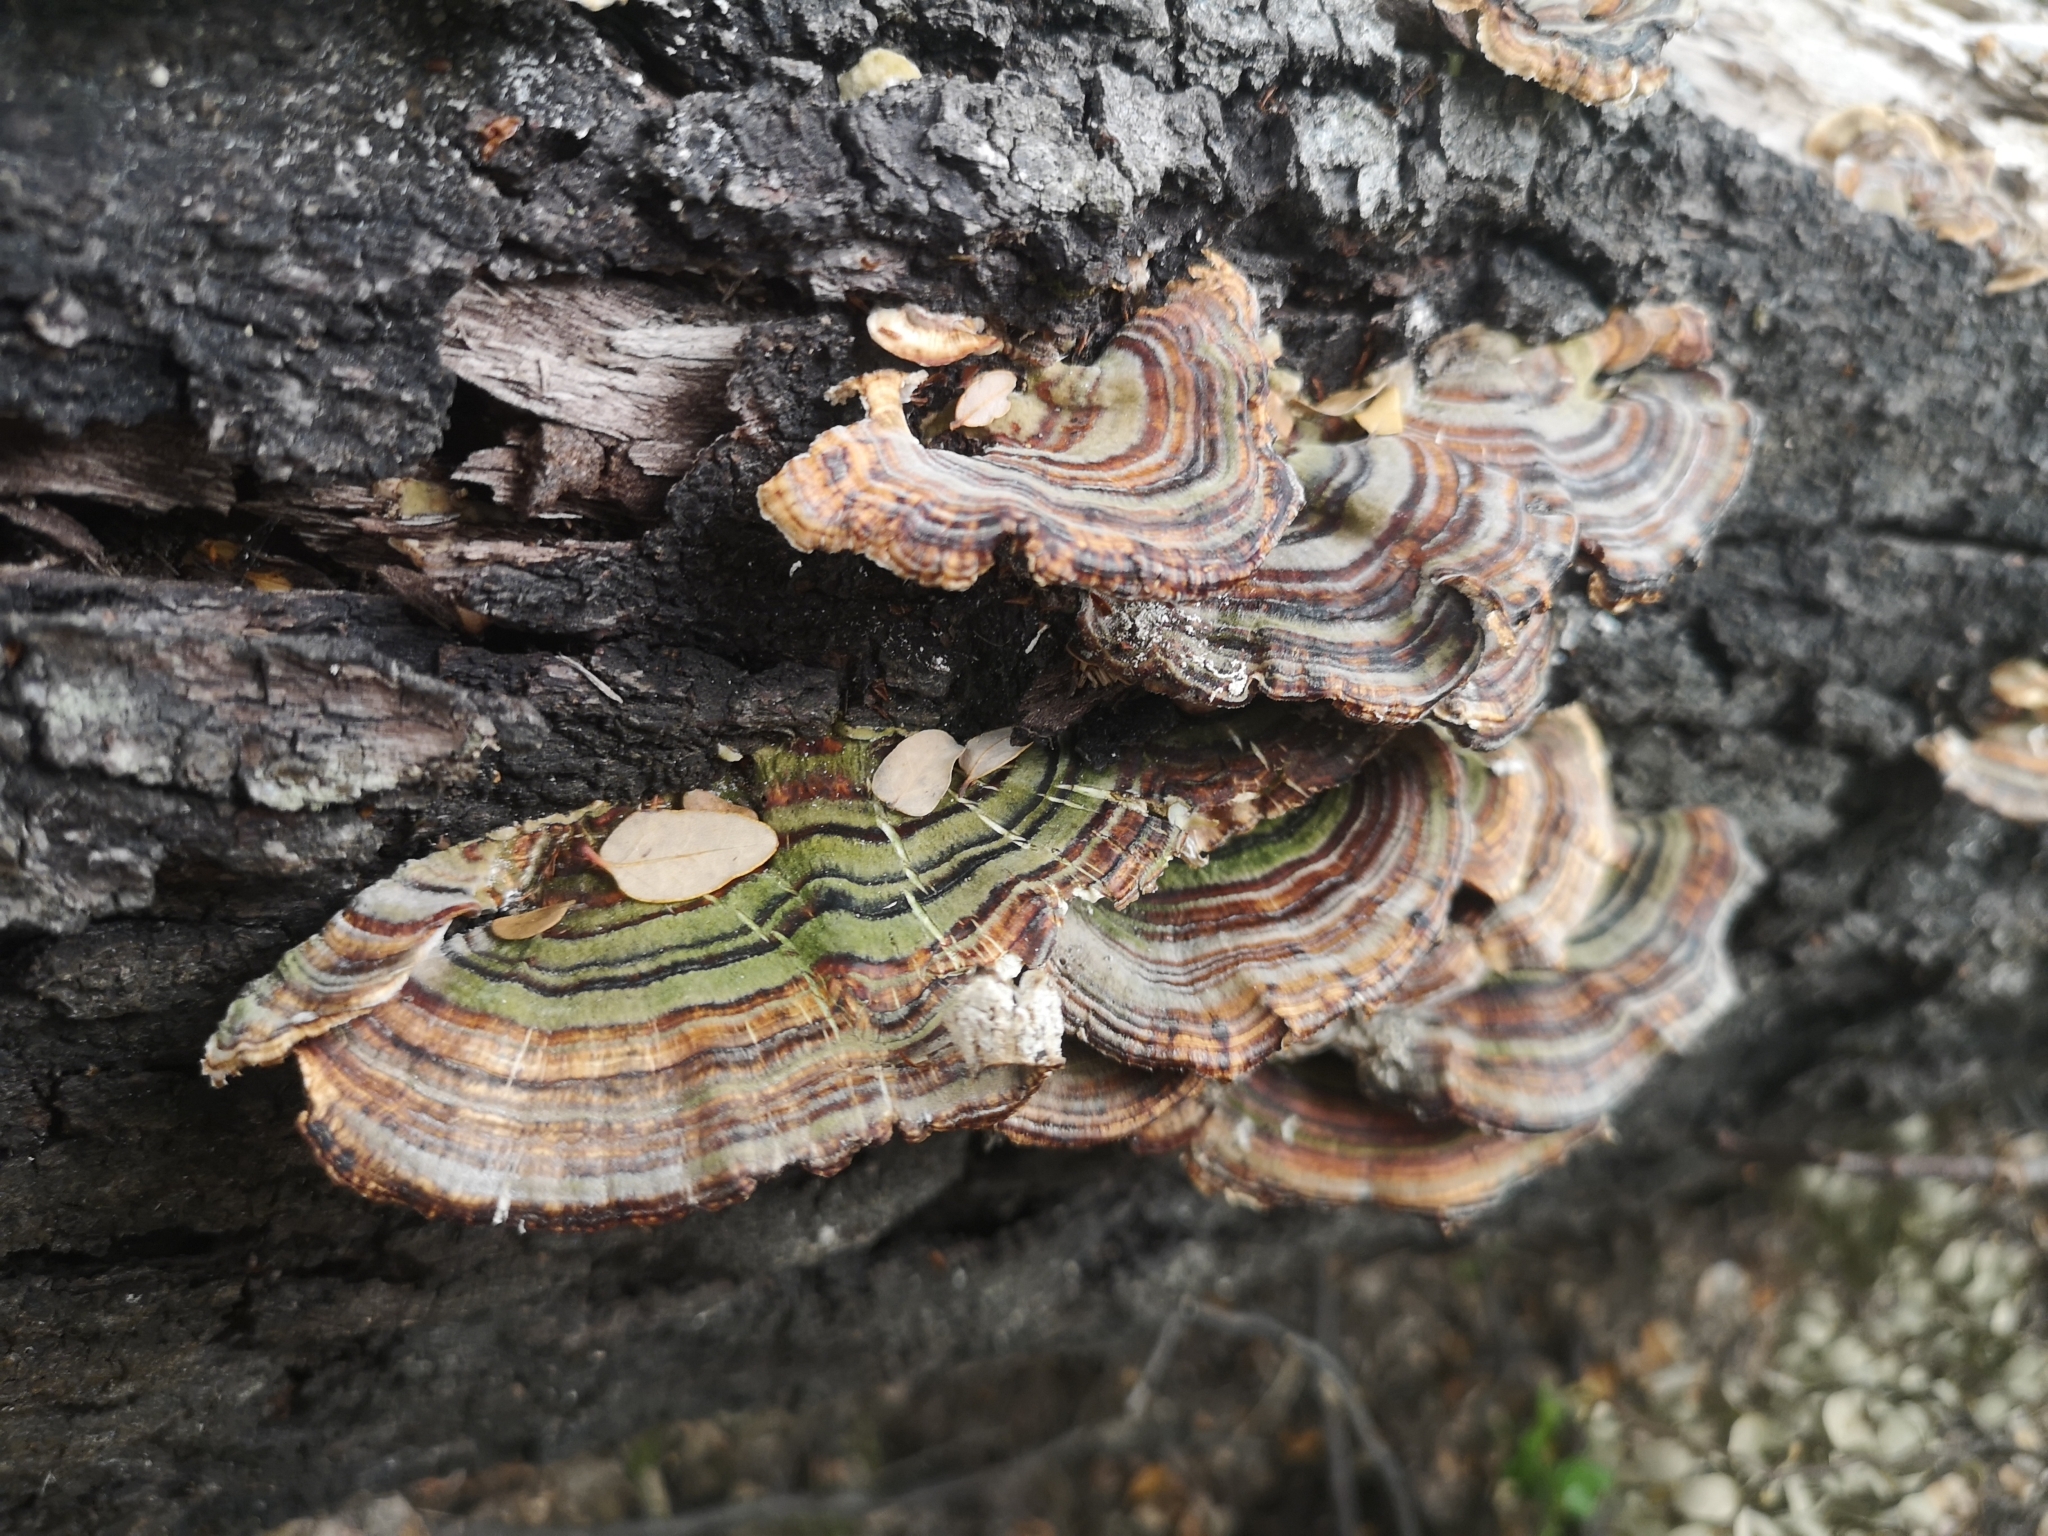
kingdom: Fungi
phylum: Basidiomycota
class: Agaricomycetes
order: Russulales
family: Stereaceae
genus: Stereum
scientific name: Stereum versicolor
